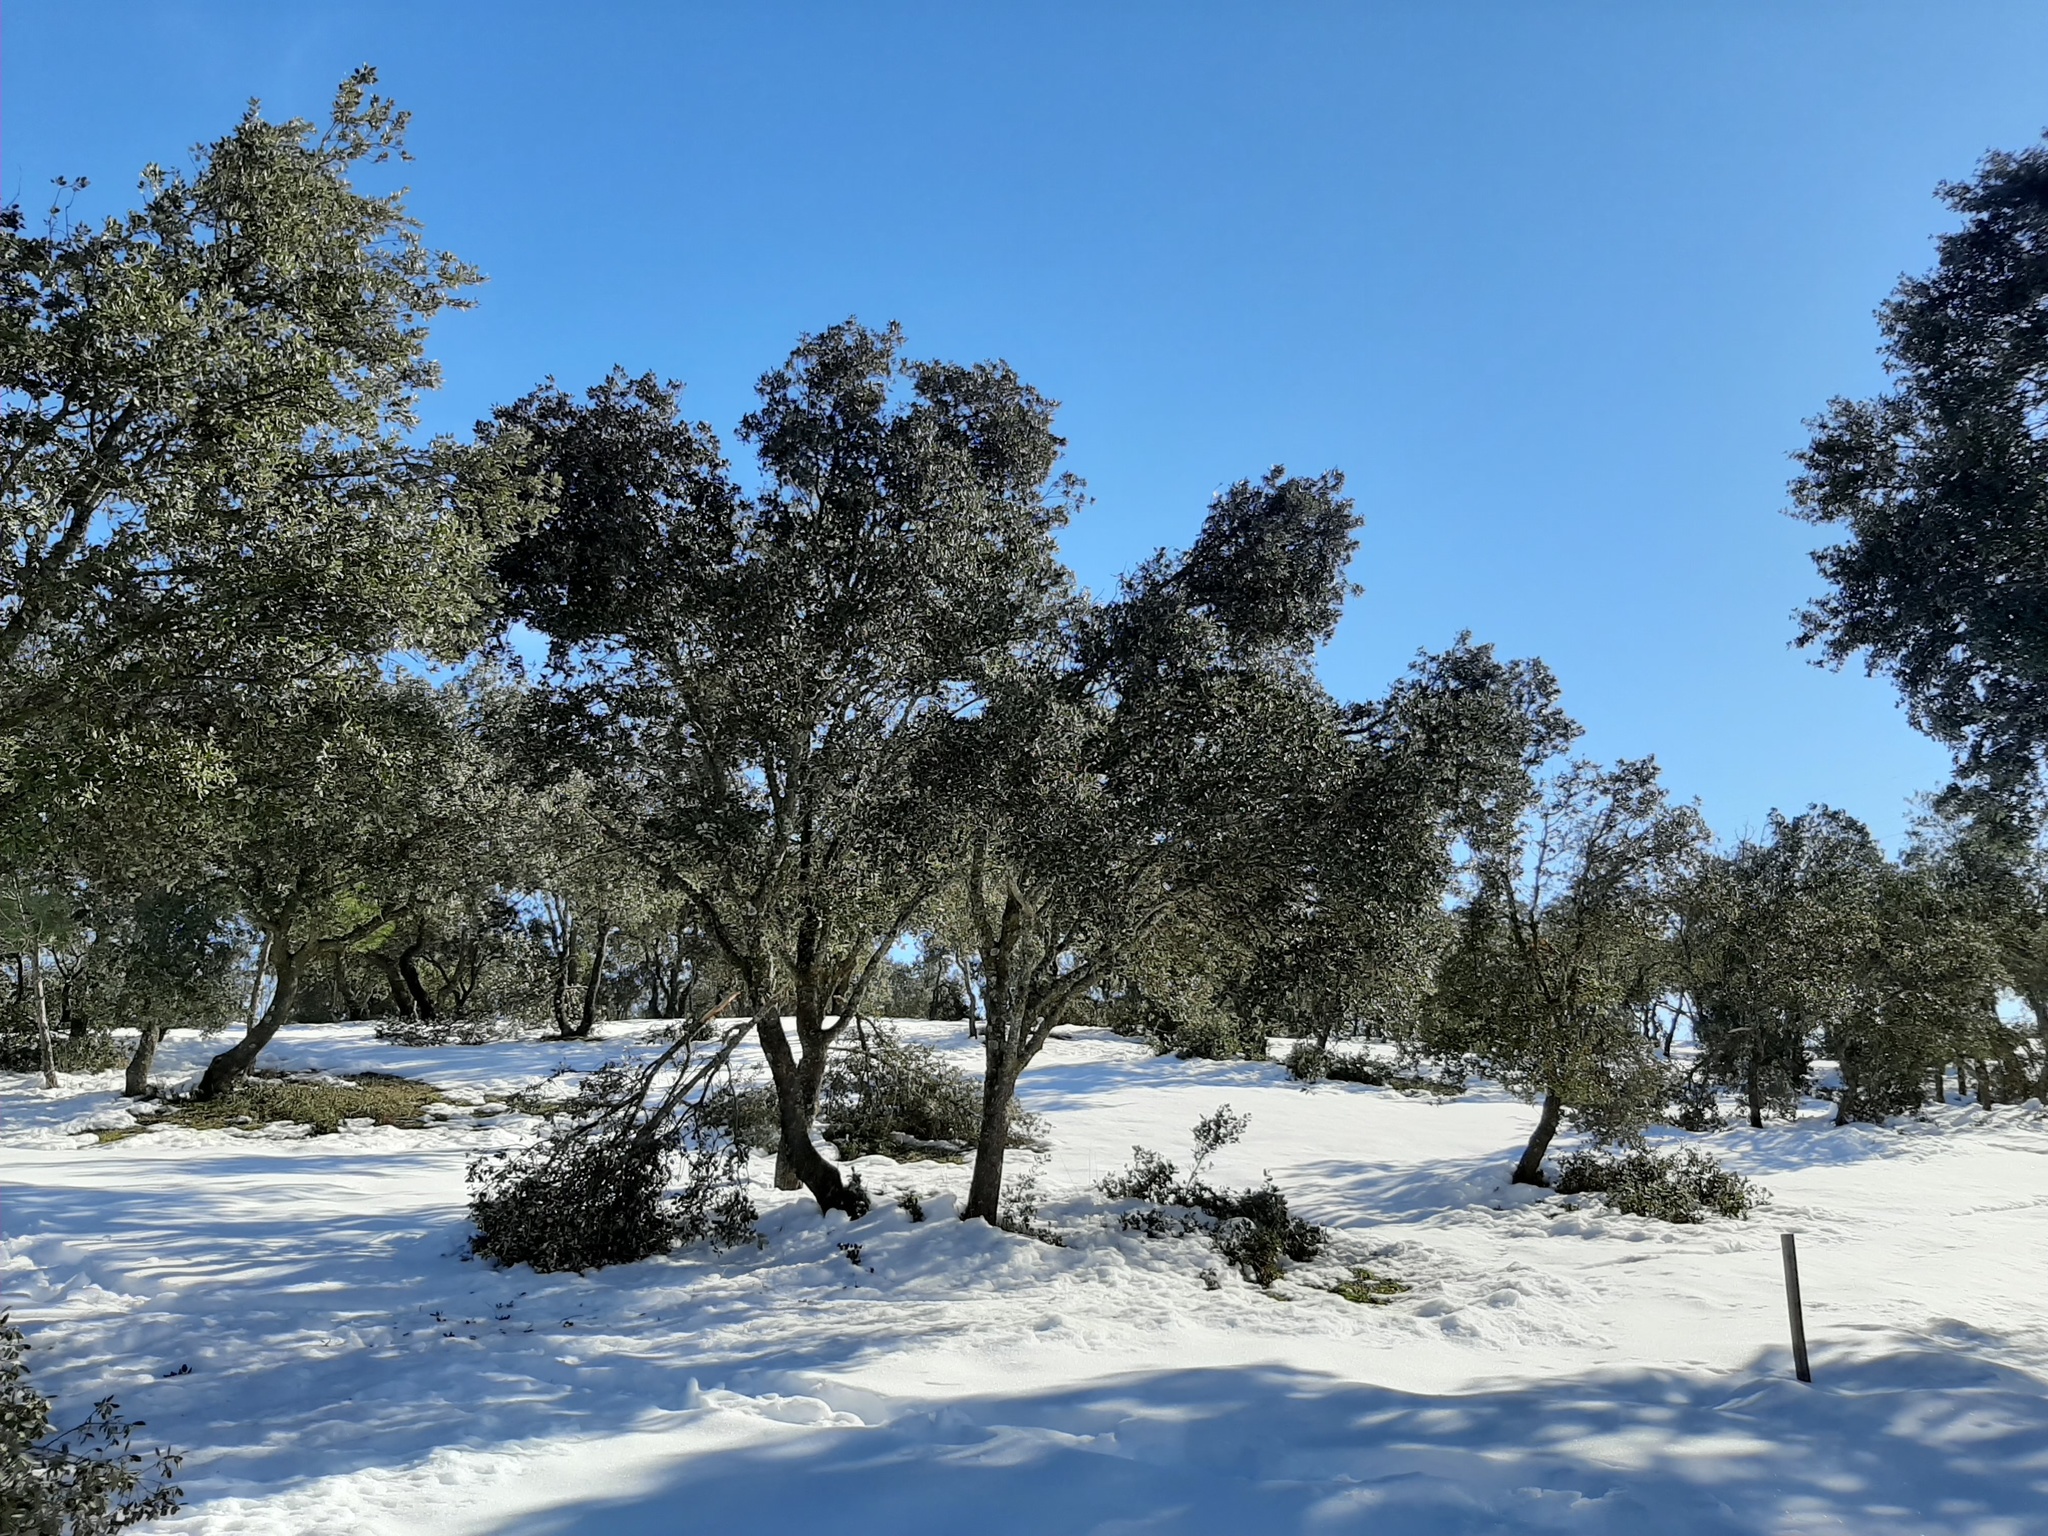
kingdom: Plantae
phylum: Tracheophyta
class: Magnoliopsida
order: Fagales
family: Fagaceae
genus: Quercus
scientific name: Quercus rotundifolia
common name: Holm oak
